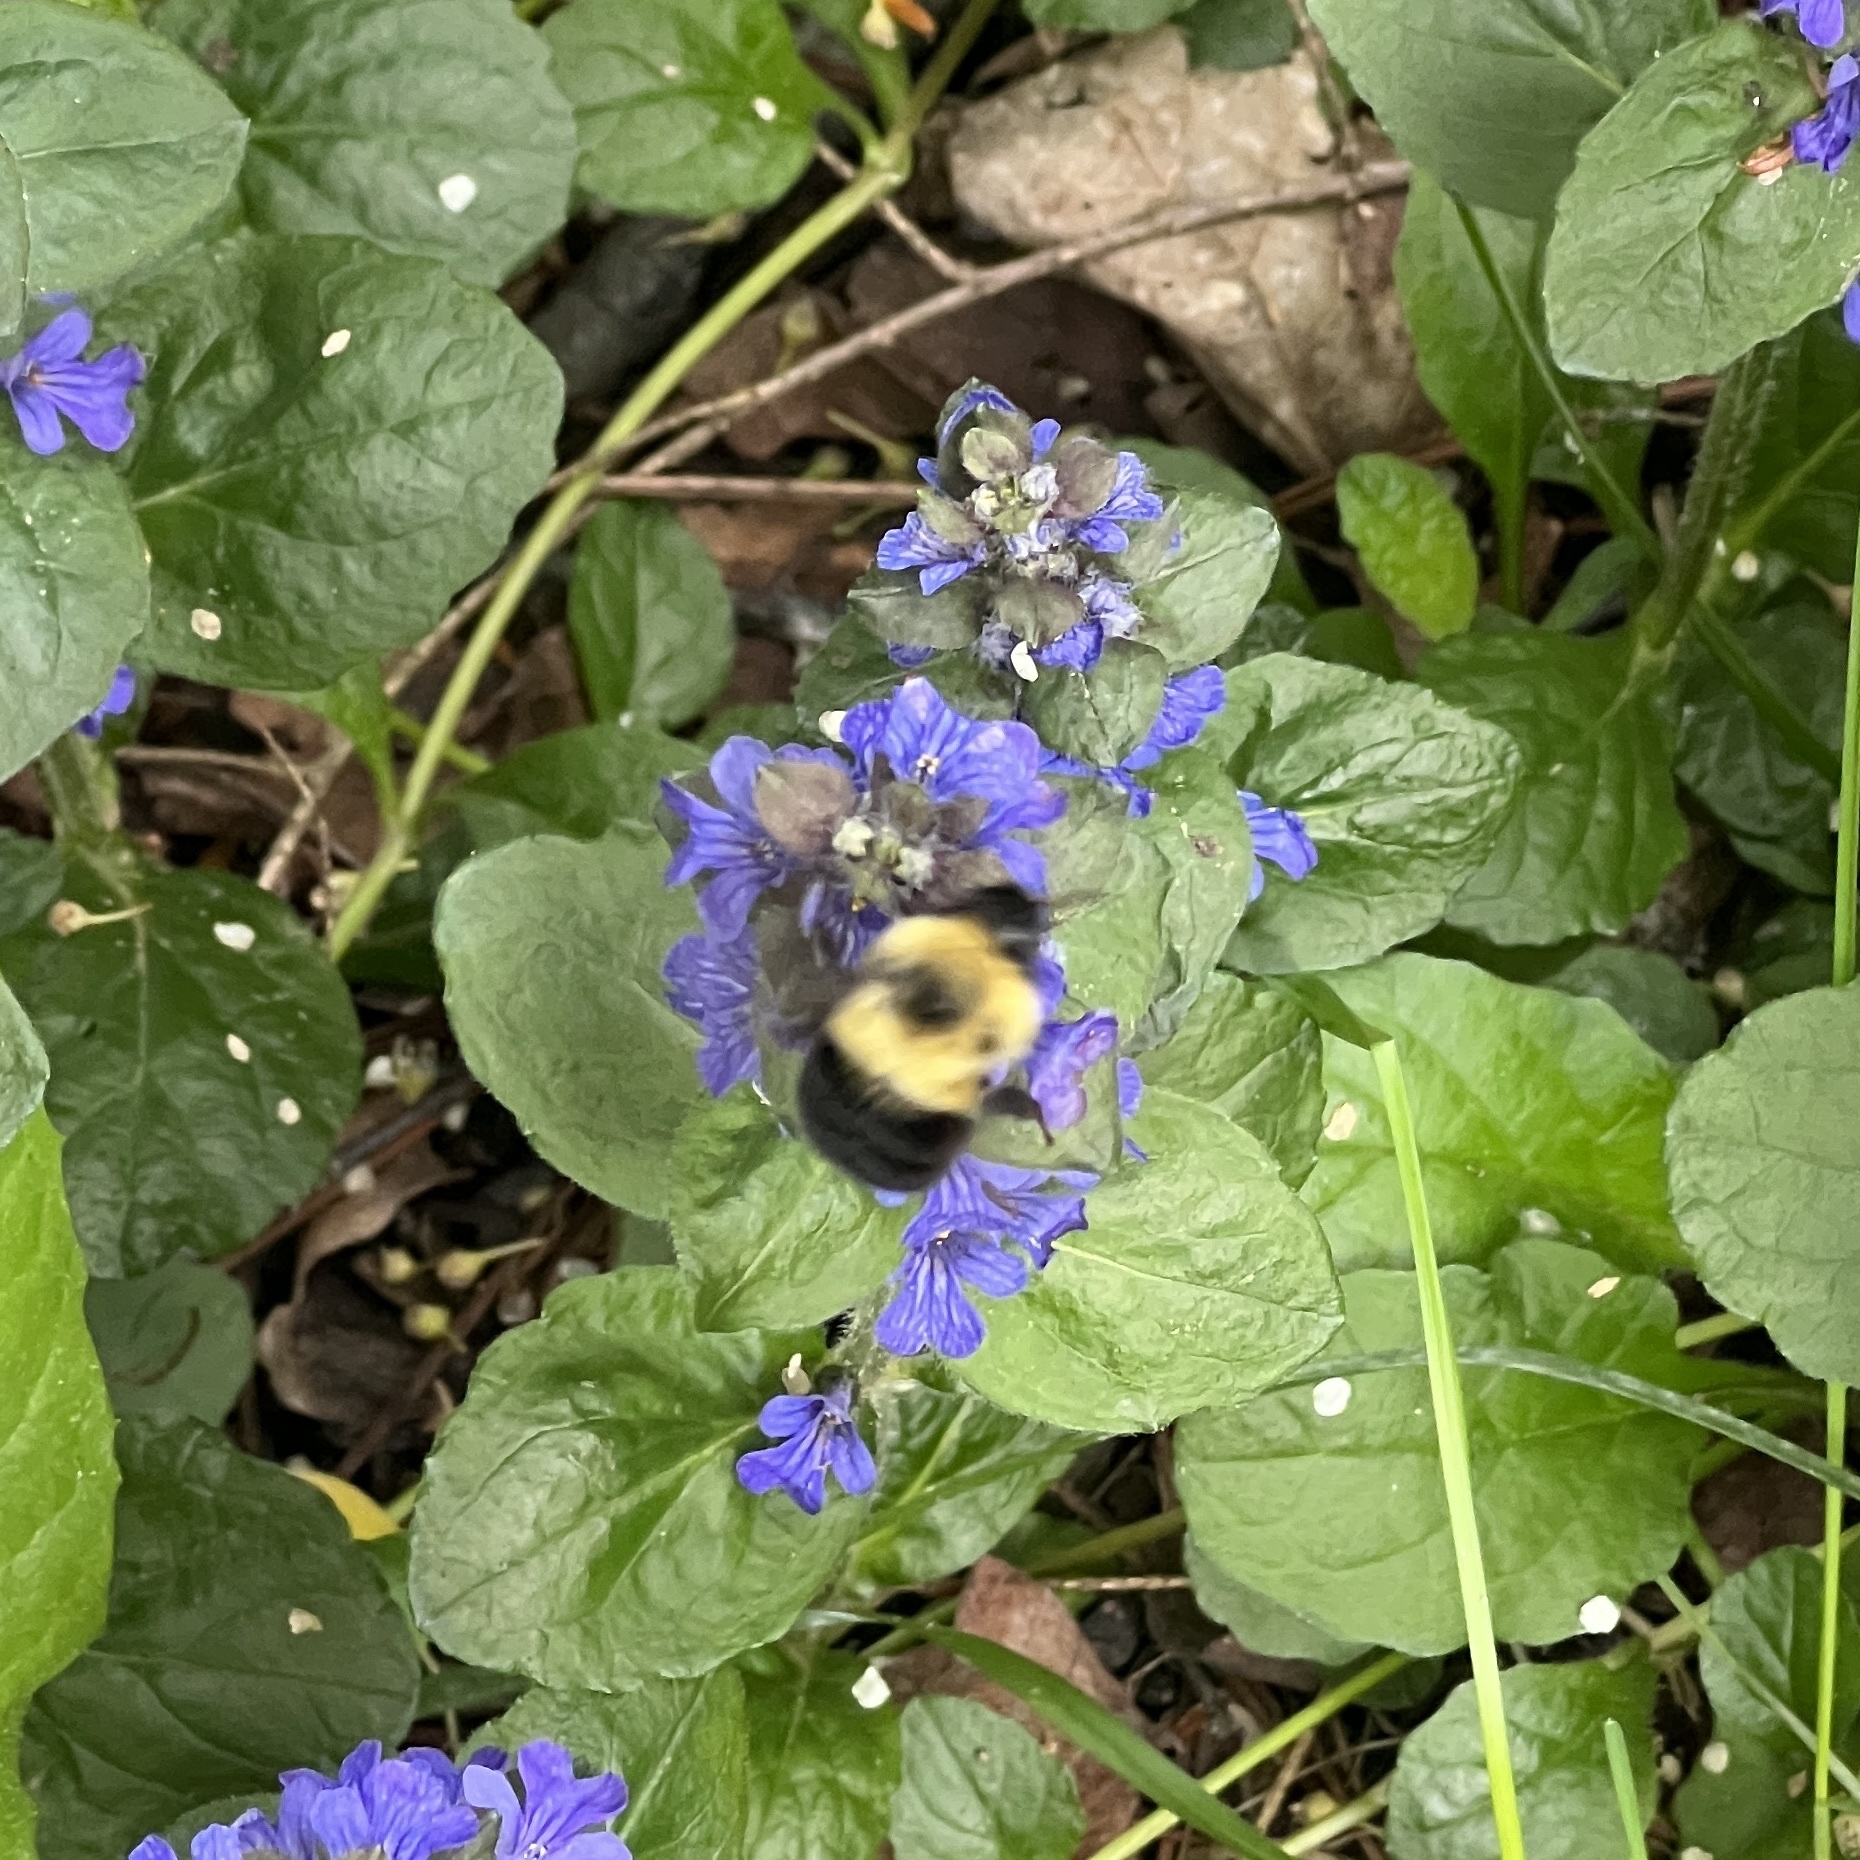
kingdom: Animalia
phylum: Arthropoda
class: Insecta
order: Hymenoptera
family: Apidae
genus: Bombus
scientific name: Bombus bimaculatus
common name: Two-spotted bumble bee
